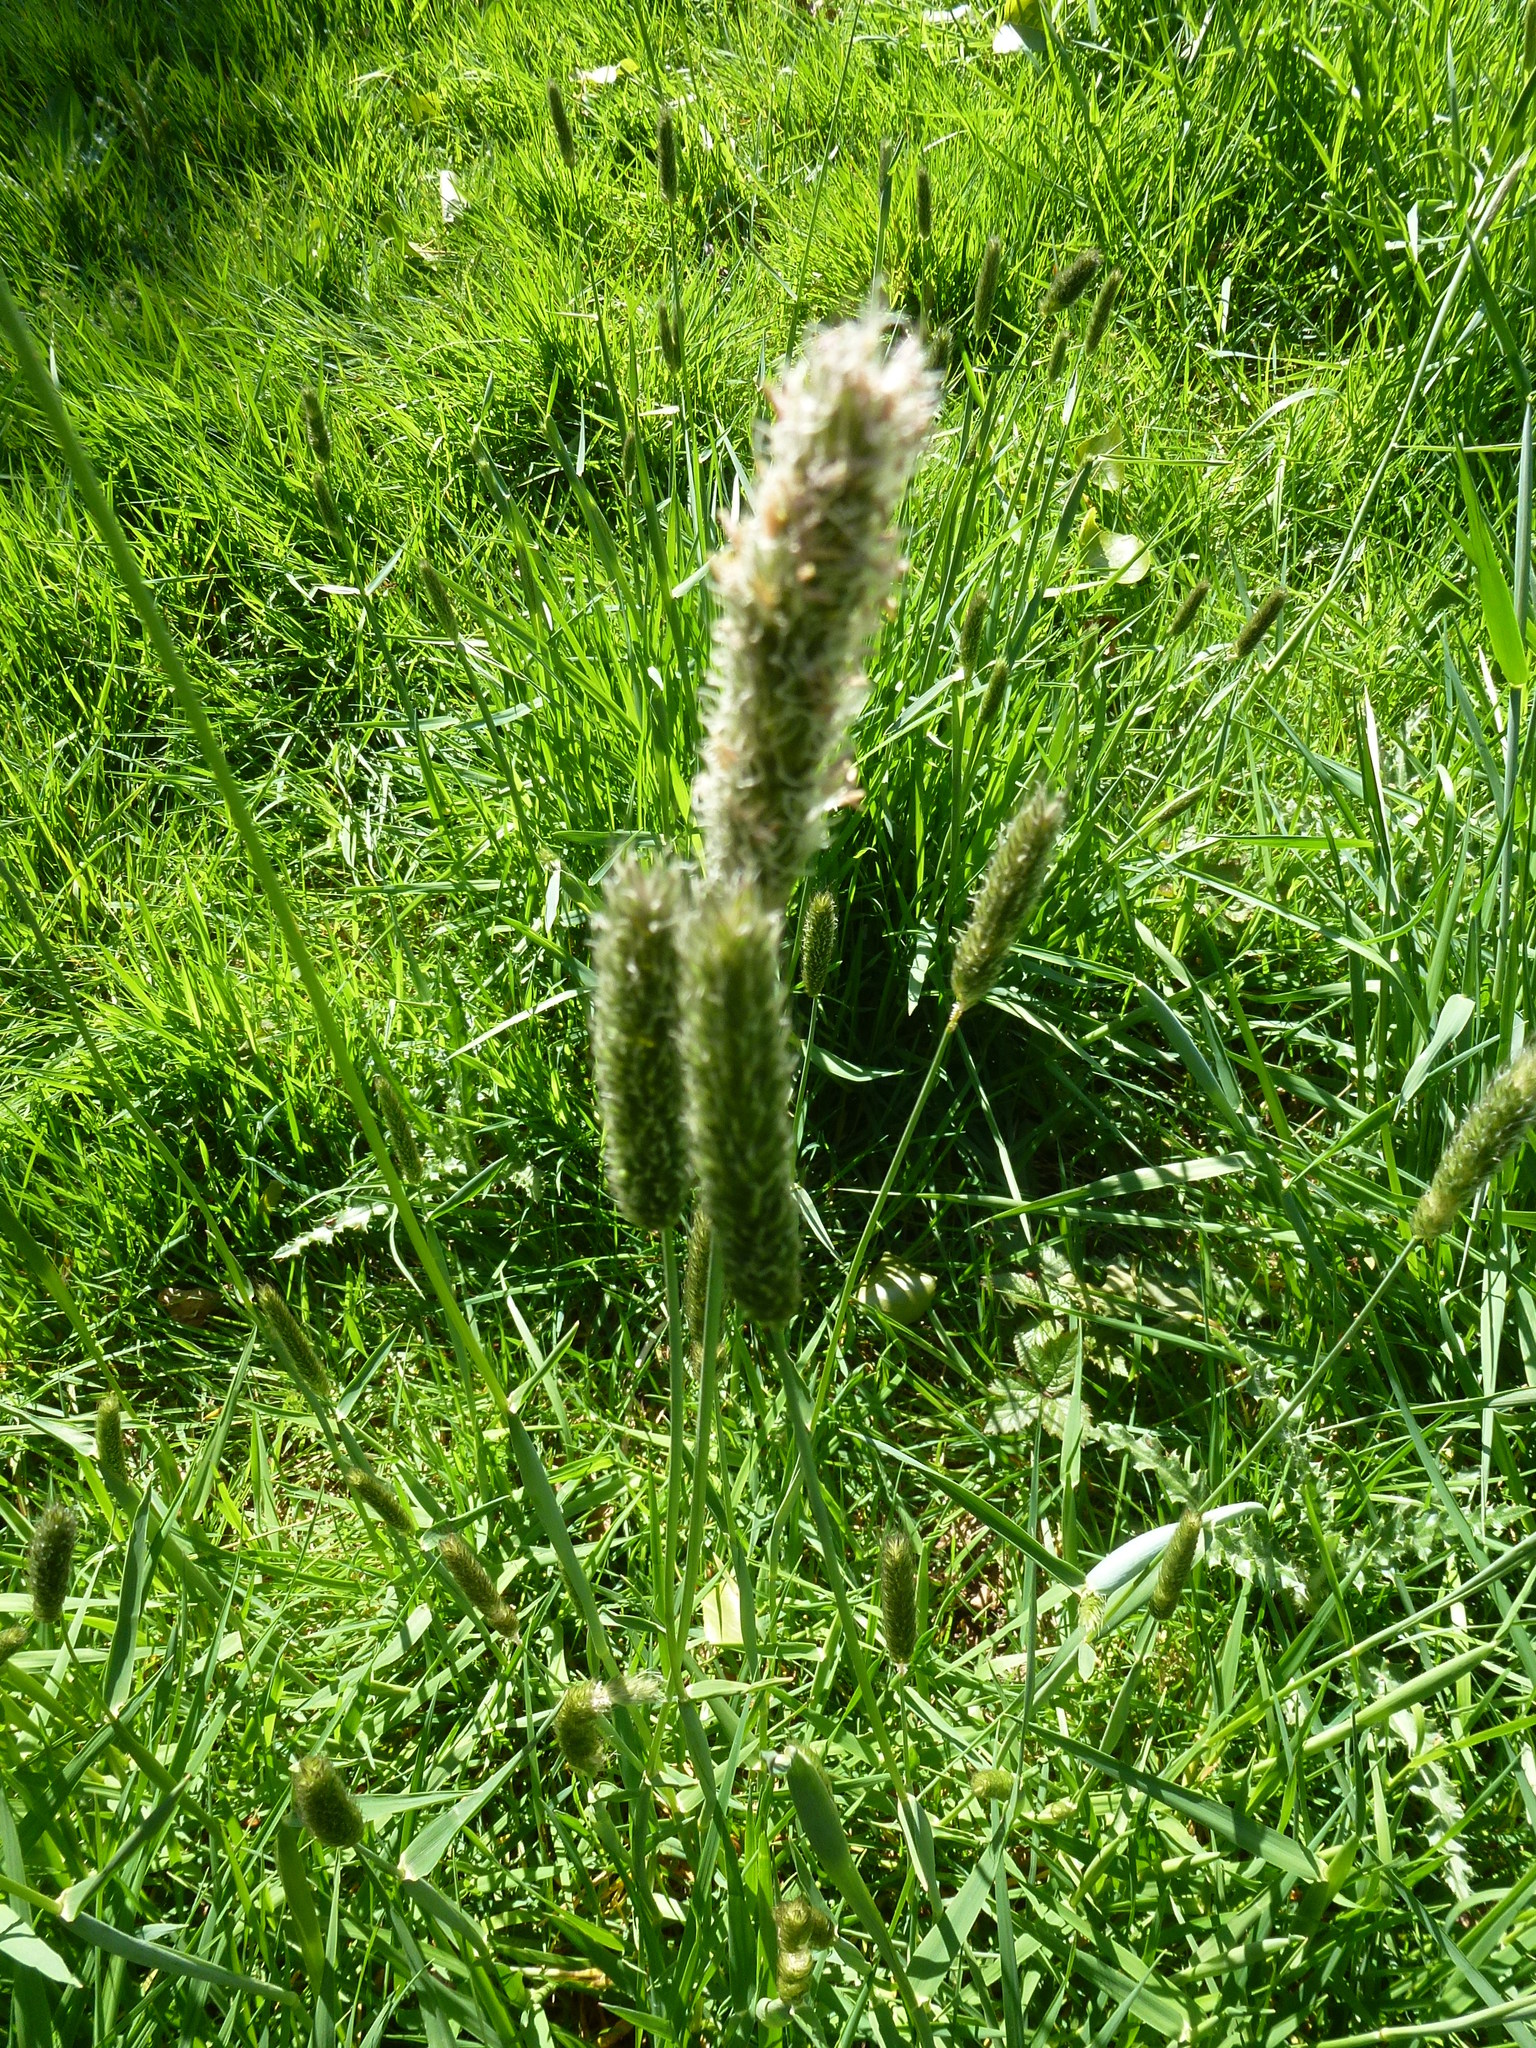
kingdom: Plantae
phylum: Tracheophyta
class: Liliopsida
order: Poales
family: Poaceae
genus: Alopecurus
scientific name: Alopecurus pratensis
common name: Meadow foxtail
